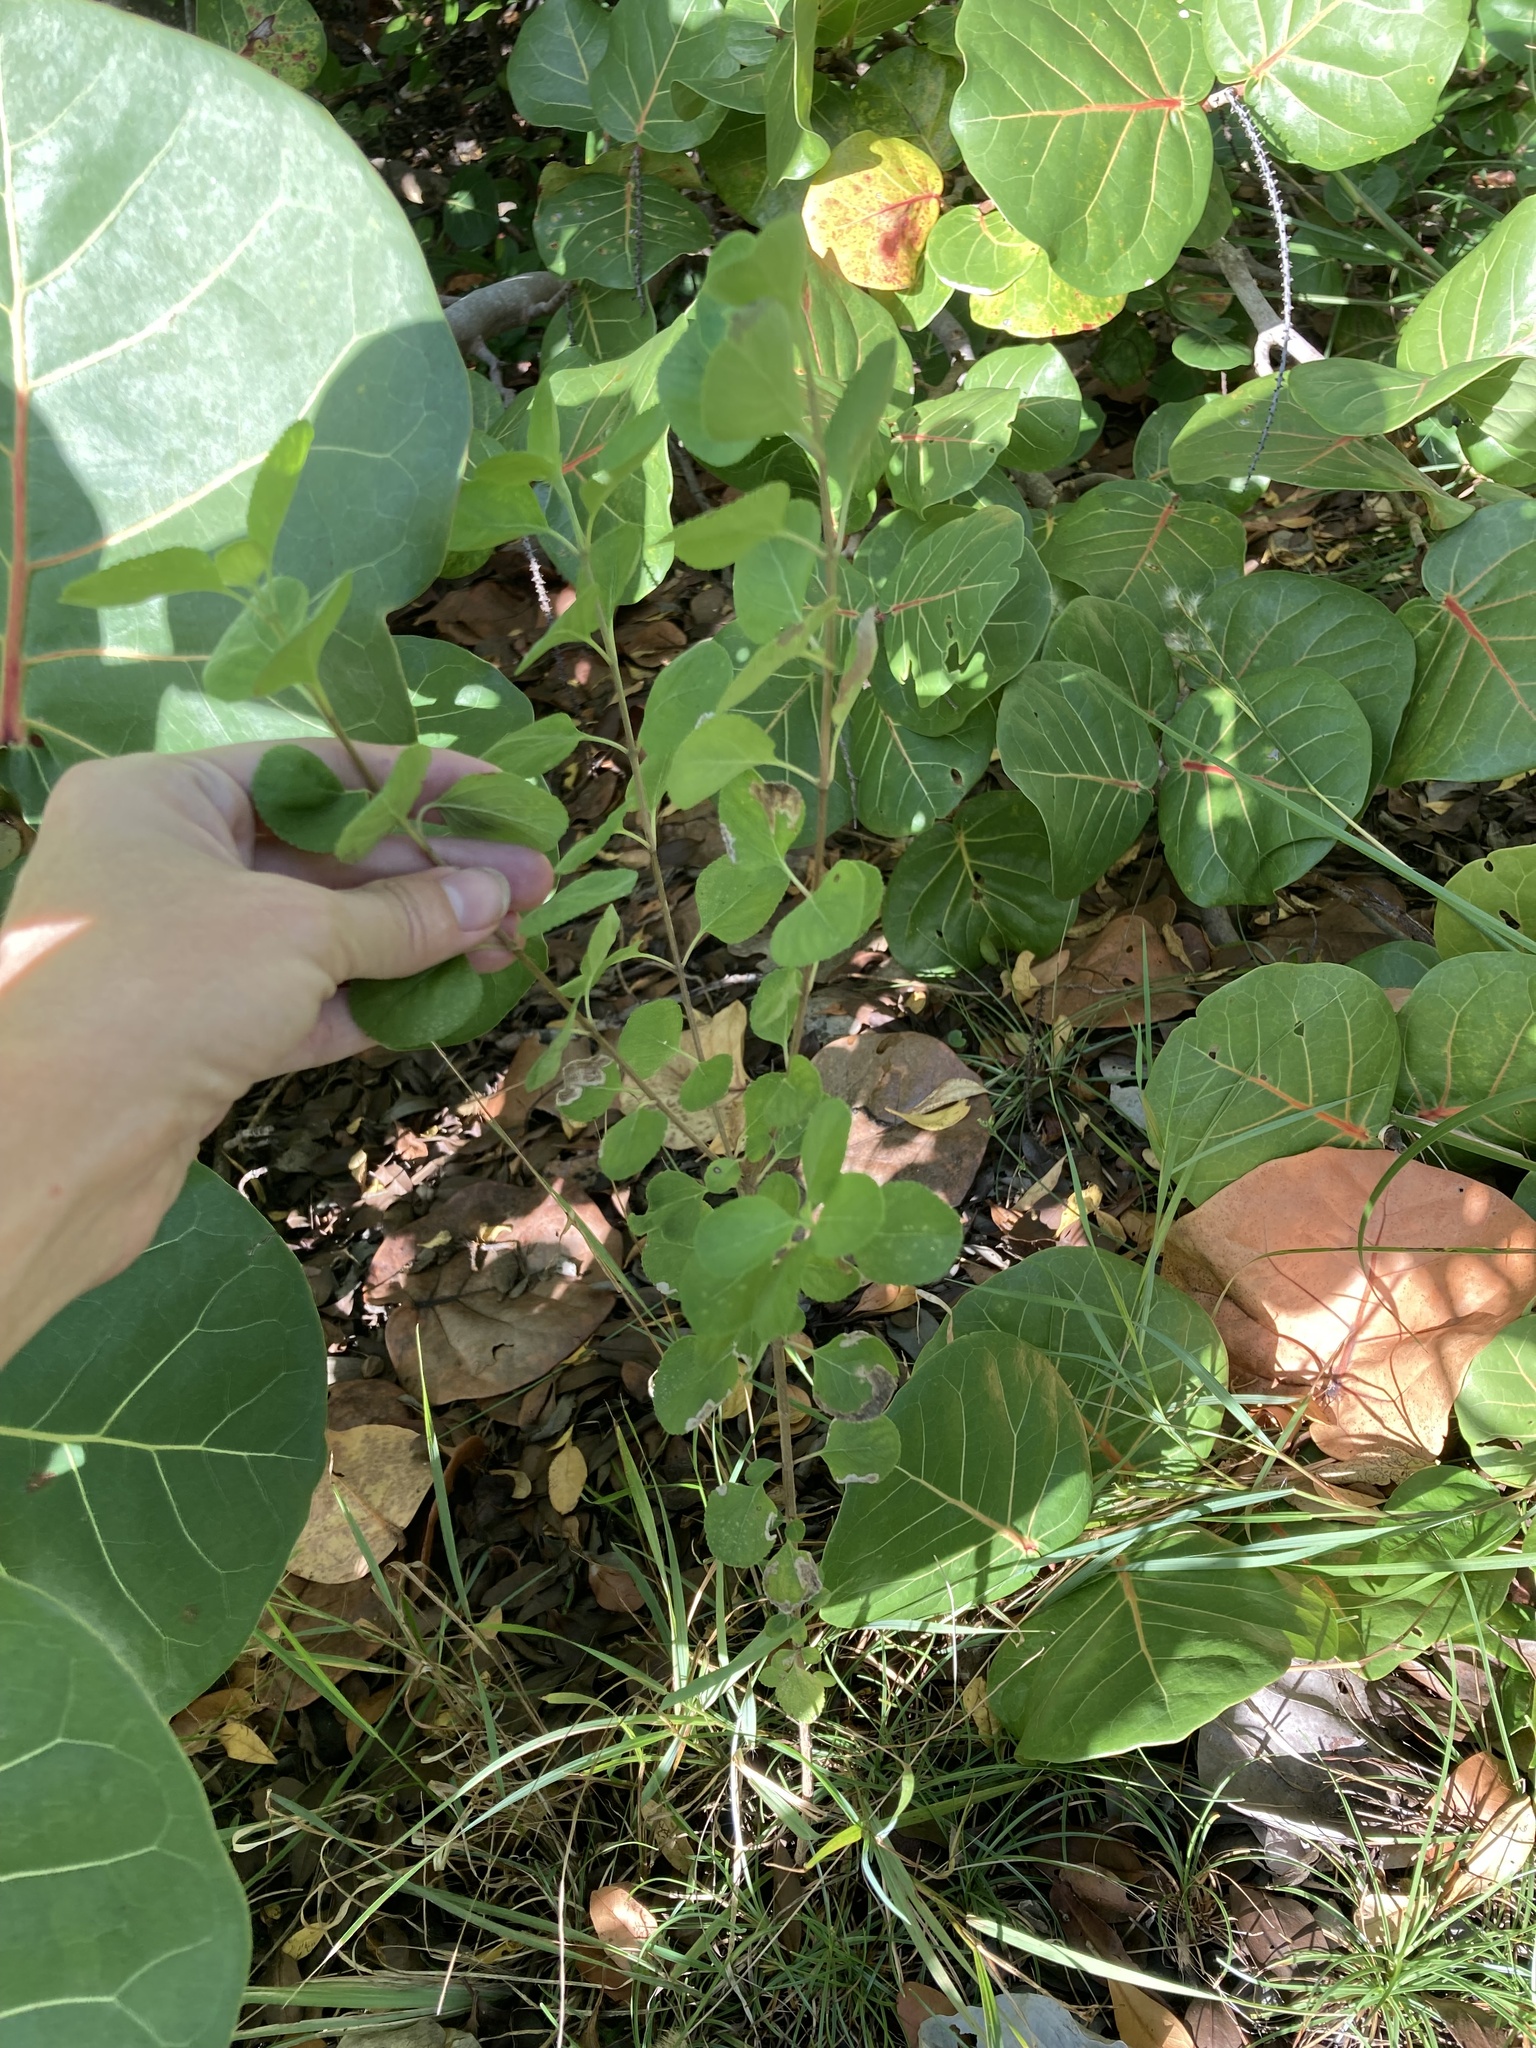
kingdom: Plantae
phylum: Tracheophyta
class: Magnoliopsida
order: Lamiales
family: Verbenaceae
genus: Lantana
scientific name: Lantana involucrata
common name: Black sage
